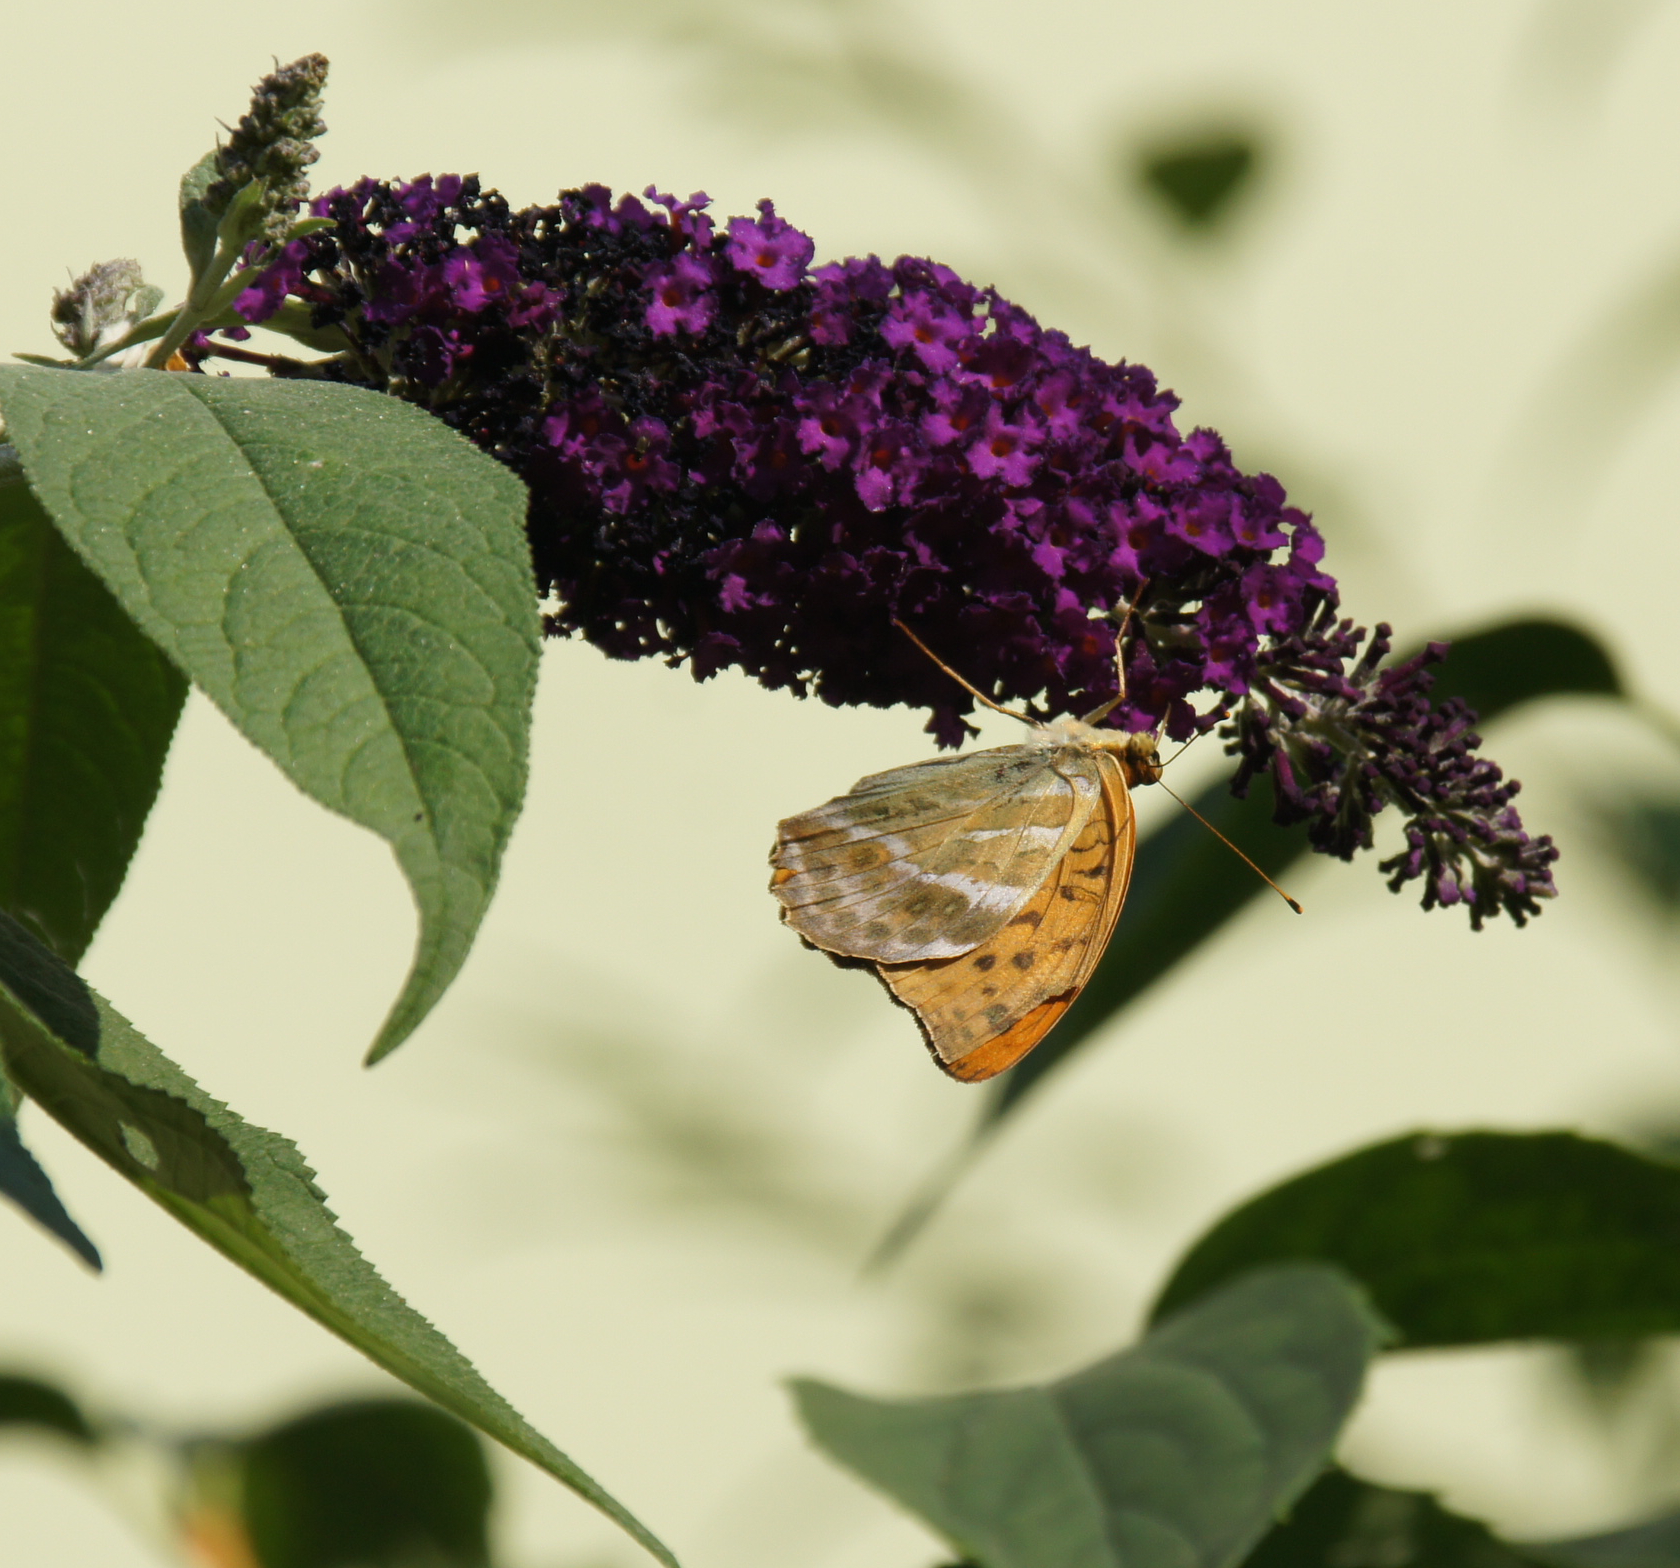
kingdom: Animalia
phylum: Arthropoda
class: Insecta
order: Lepidoptera
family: Nymphalidae
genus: Argynnis
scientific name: Argynnis paphia
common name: Silver-washed fritillary
